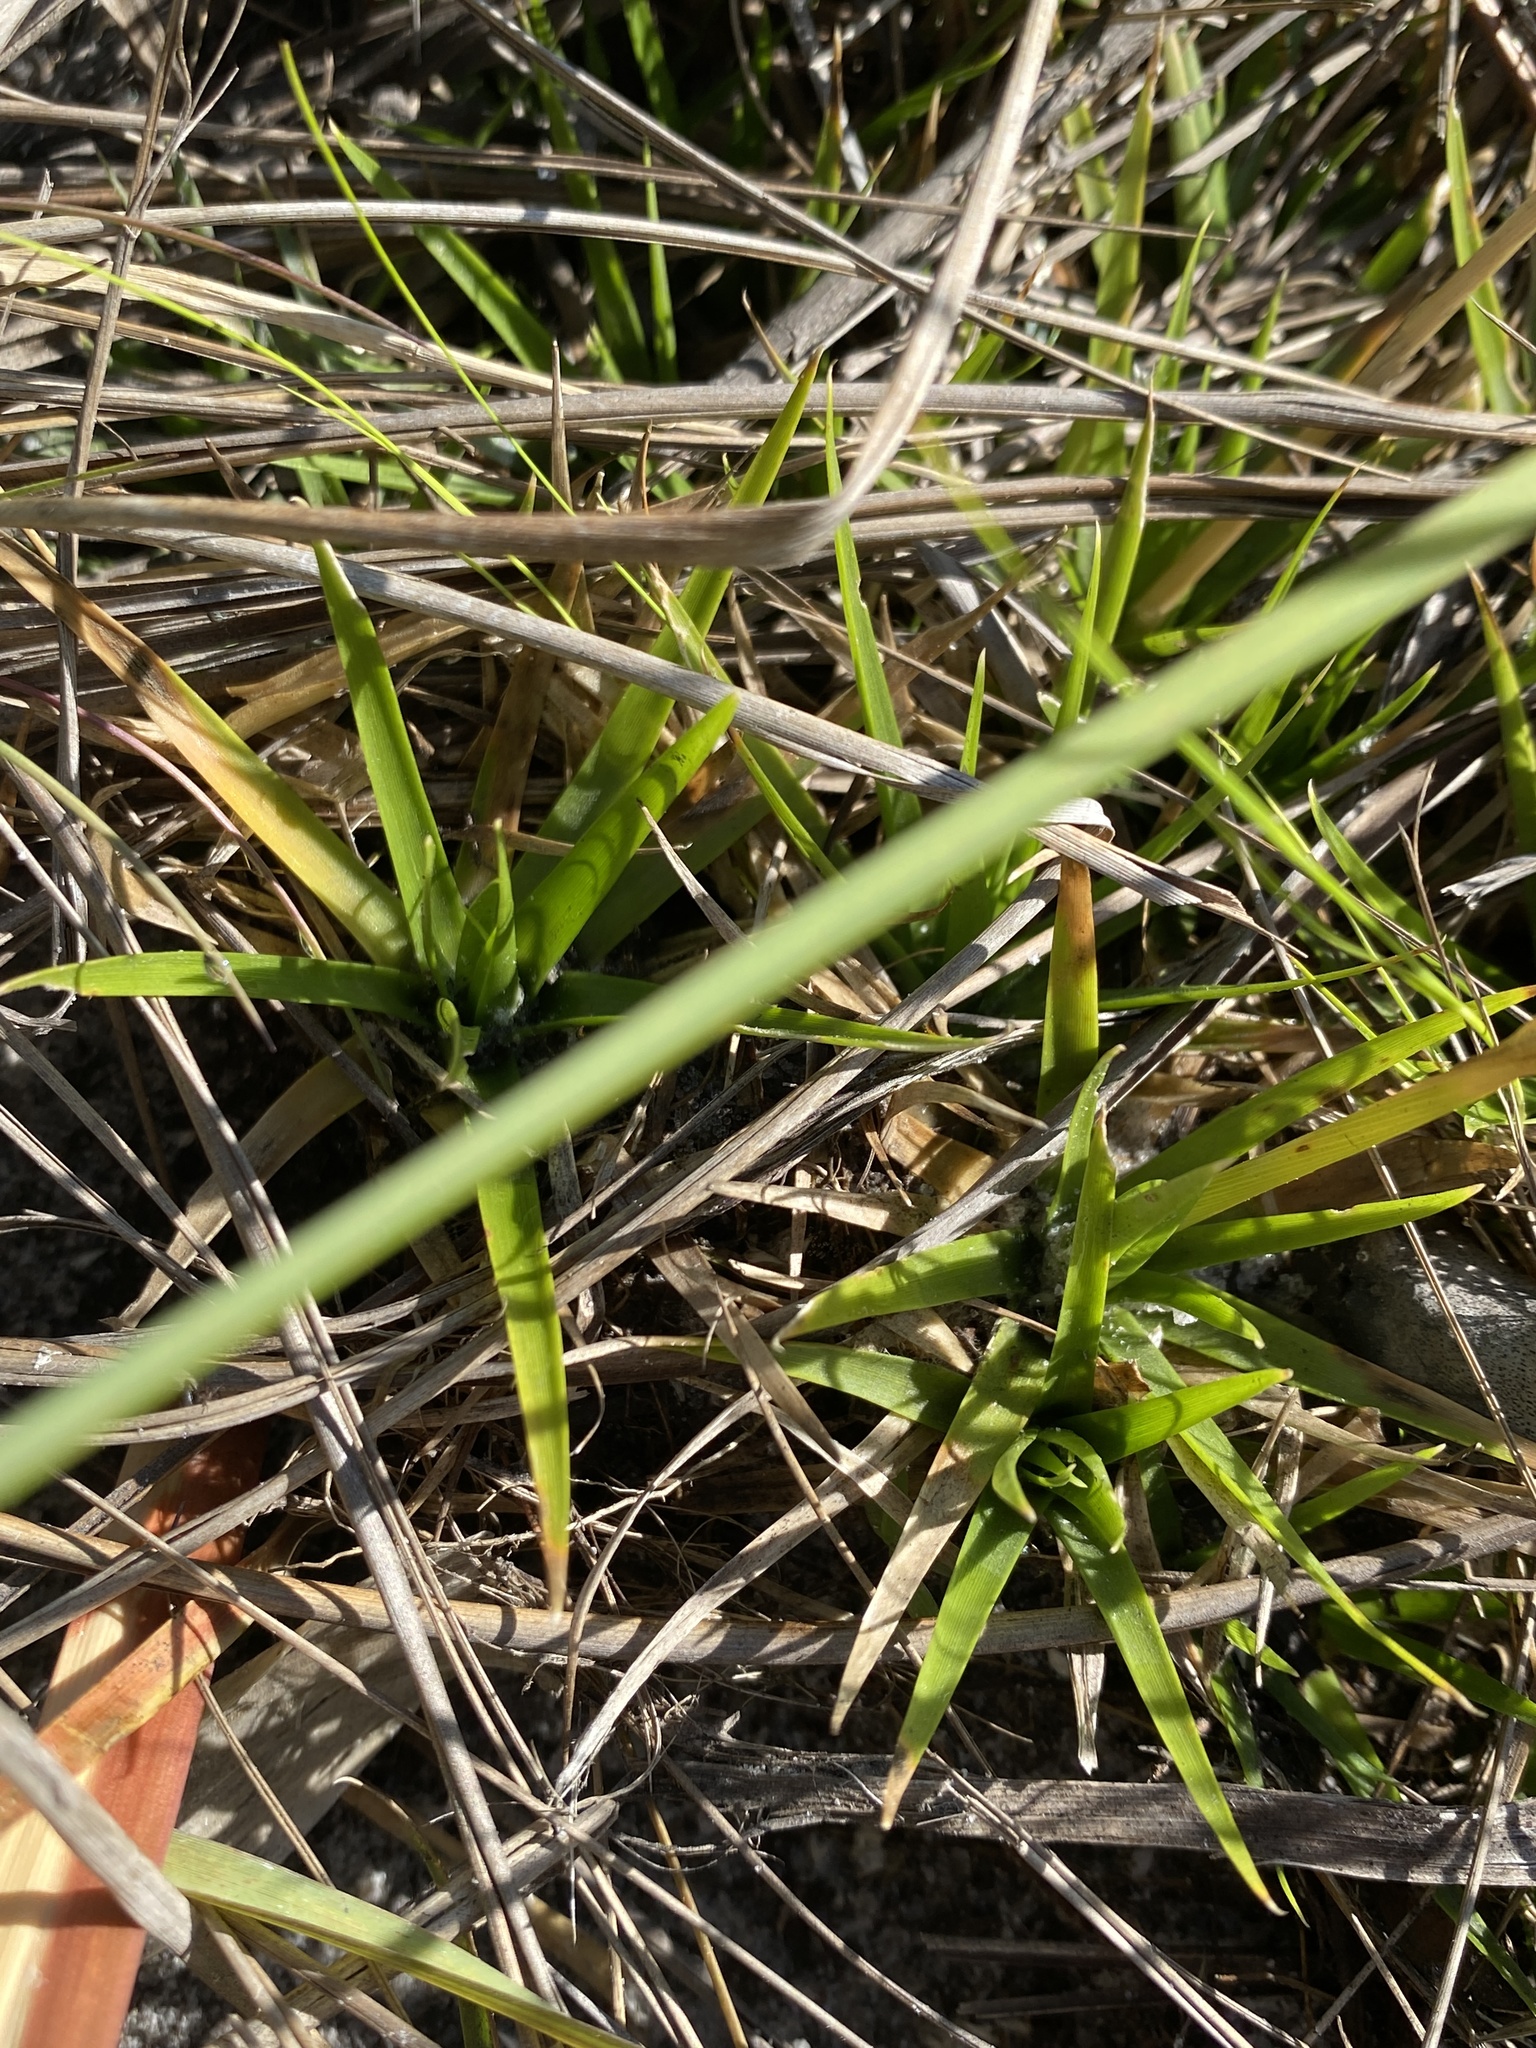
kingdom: Plantae
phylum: Tracheophyta
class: Liliopsida
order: Poales
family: Eriocaulaceae
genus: Eriocaulon
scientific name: Eriocaulon compressum
